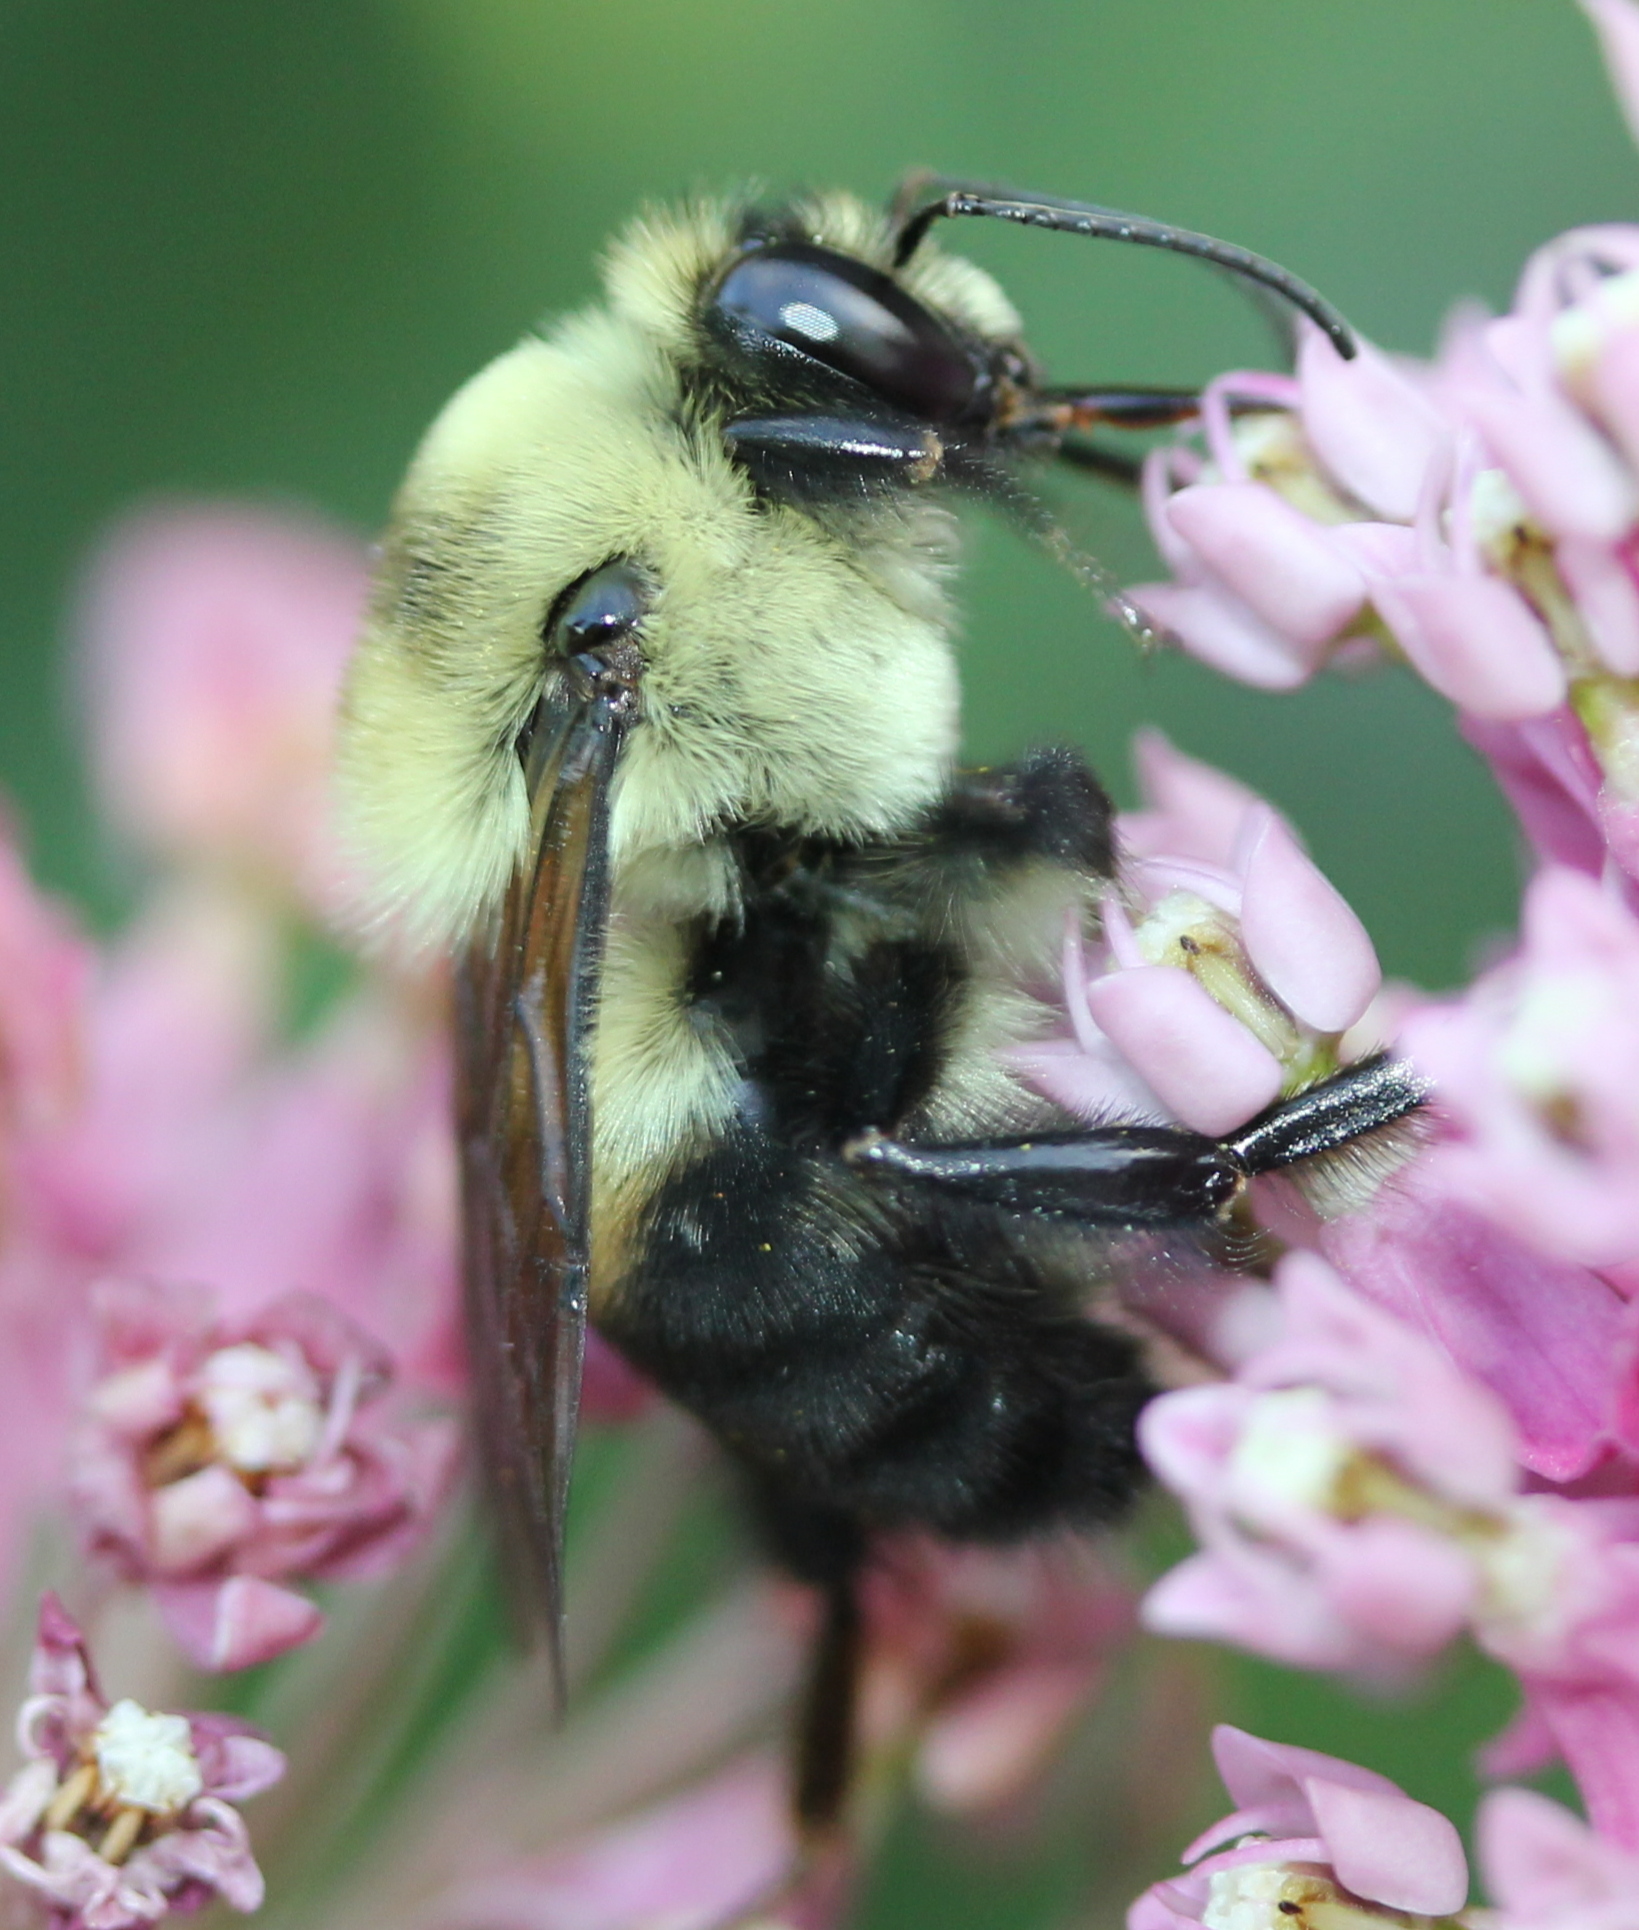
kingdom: Animalia
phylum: Arthropoda
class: Insecta
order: Hymenoptera
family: Apidae
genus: Bombus
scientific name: Bombus griseocollis
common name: Brown-belted bumble bee
